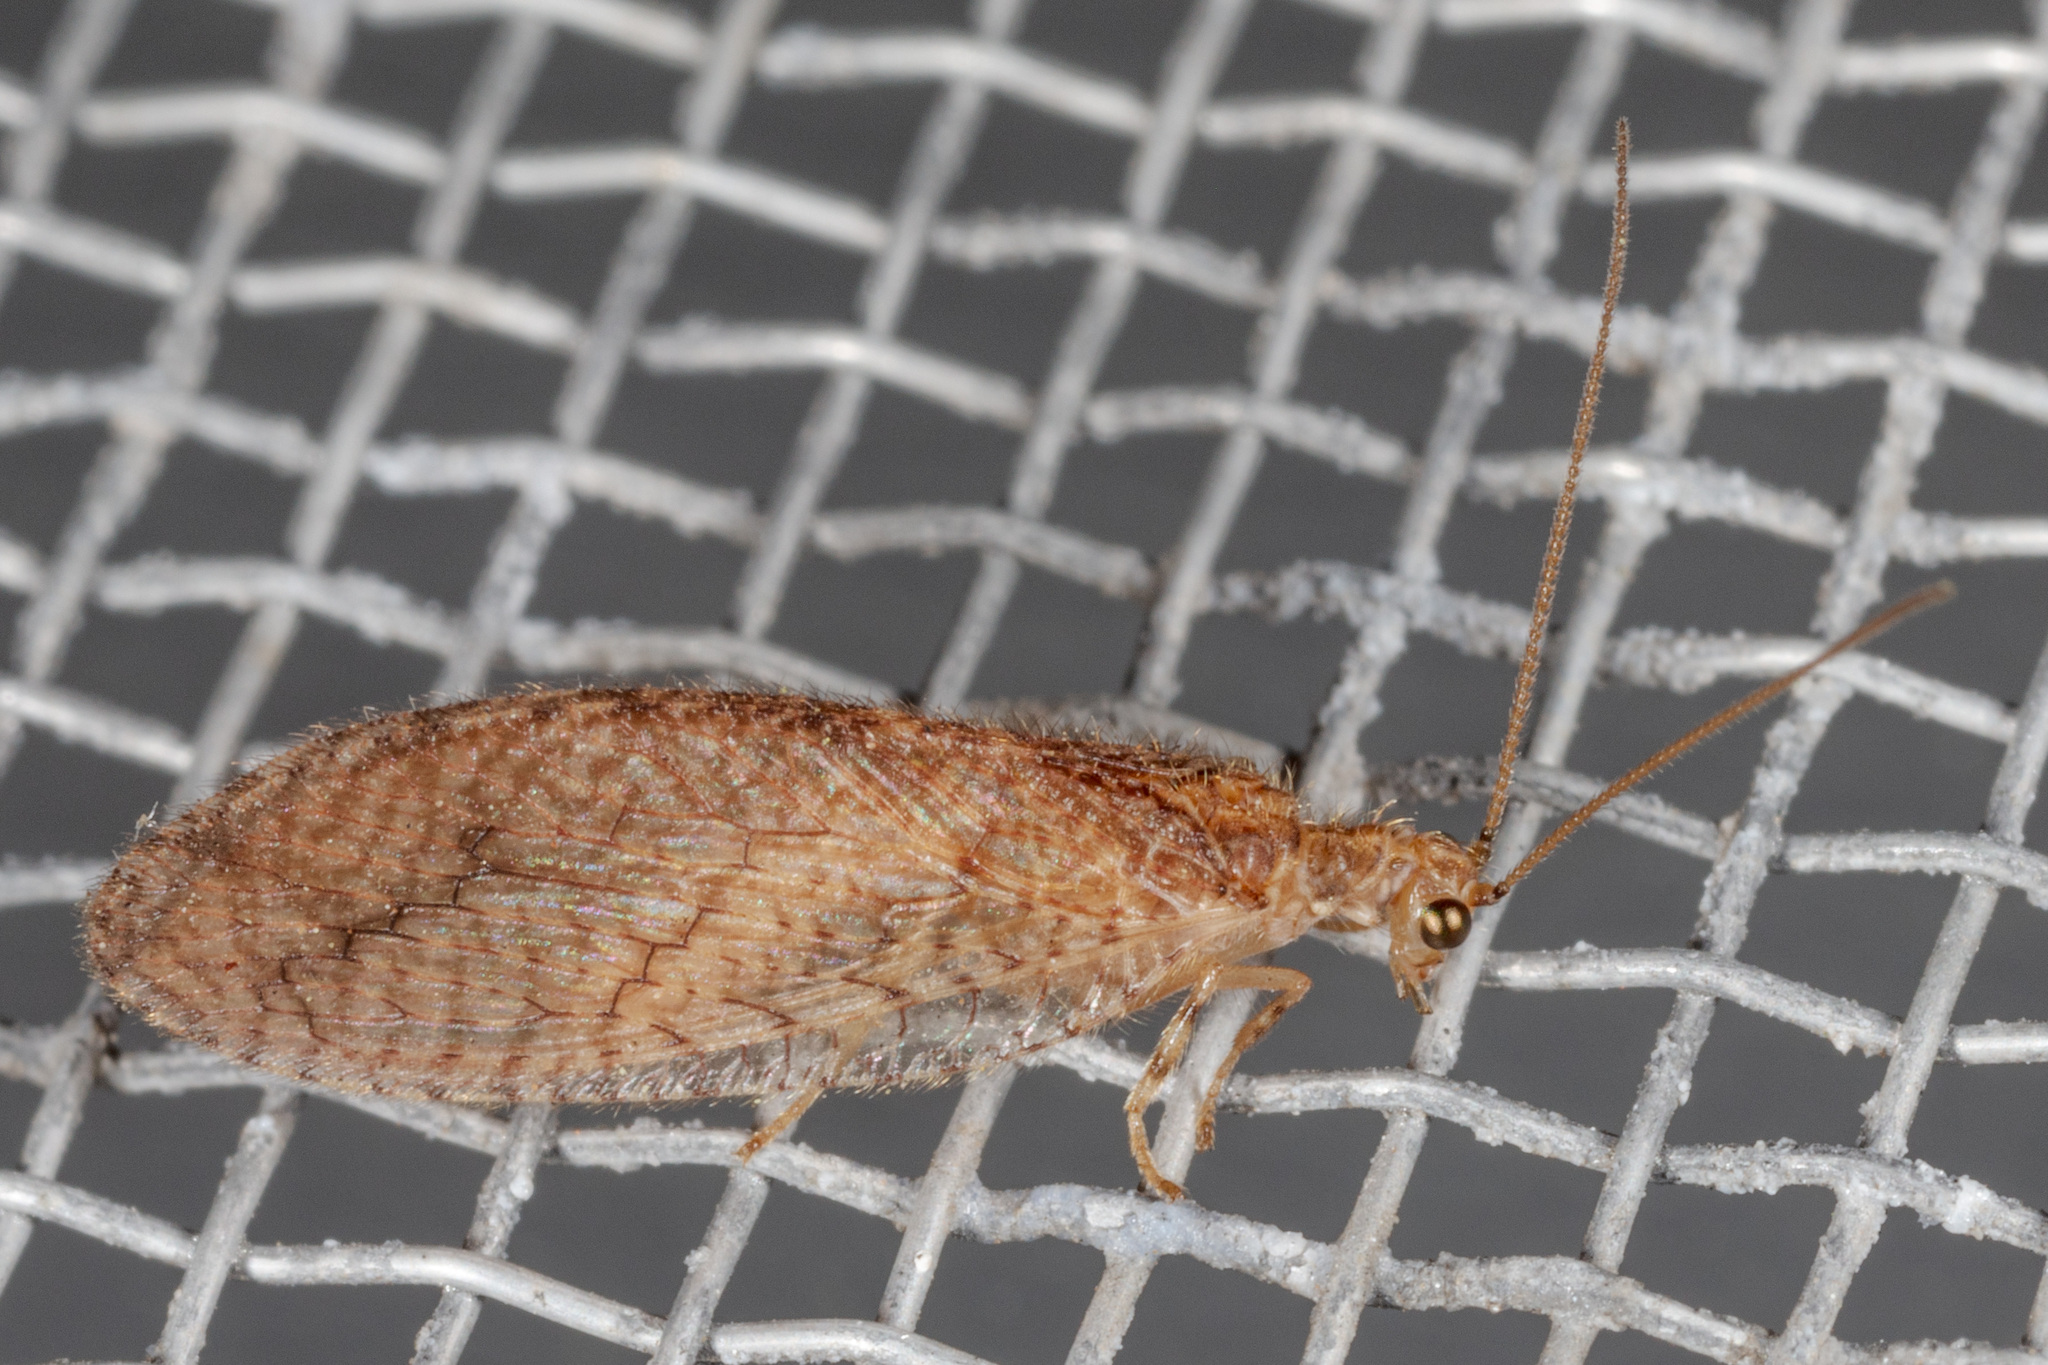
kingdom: Animalia
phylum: Arthropoda
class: Insecta
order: Neuroptera
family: Hemerobiidae
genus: Micromus
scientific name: Micromus posticus
